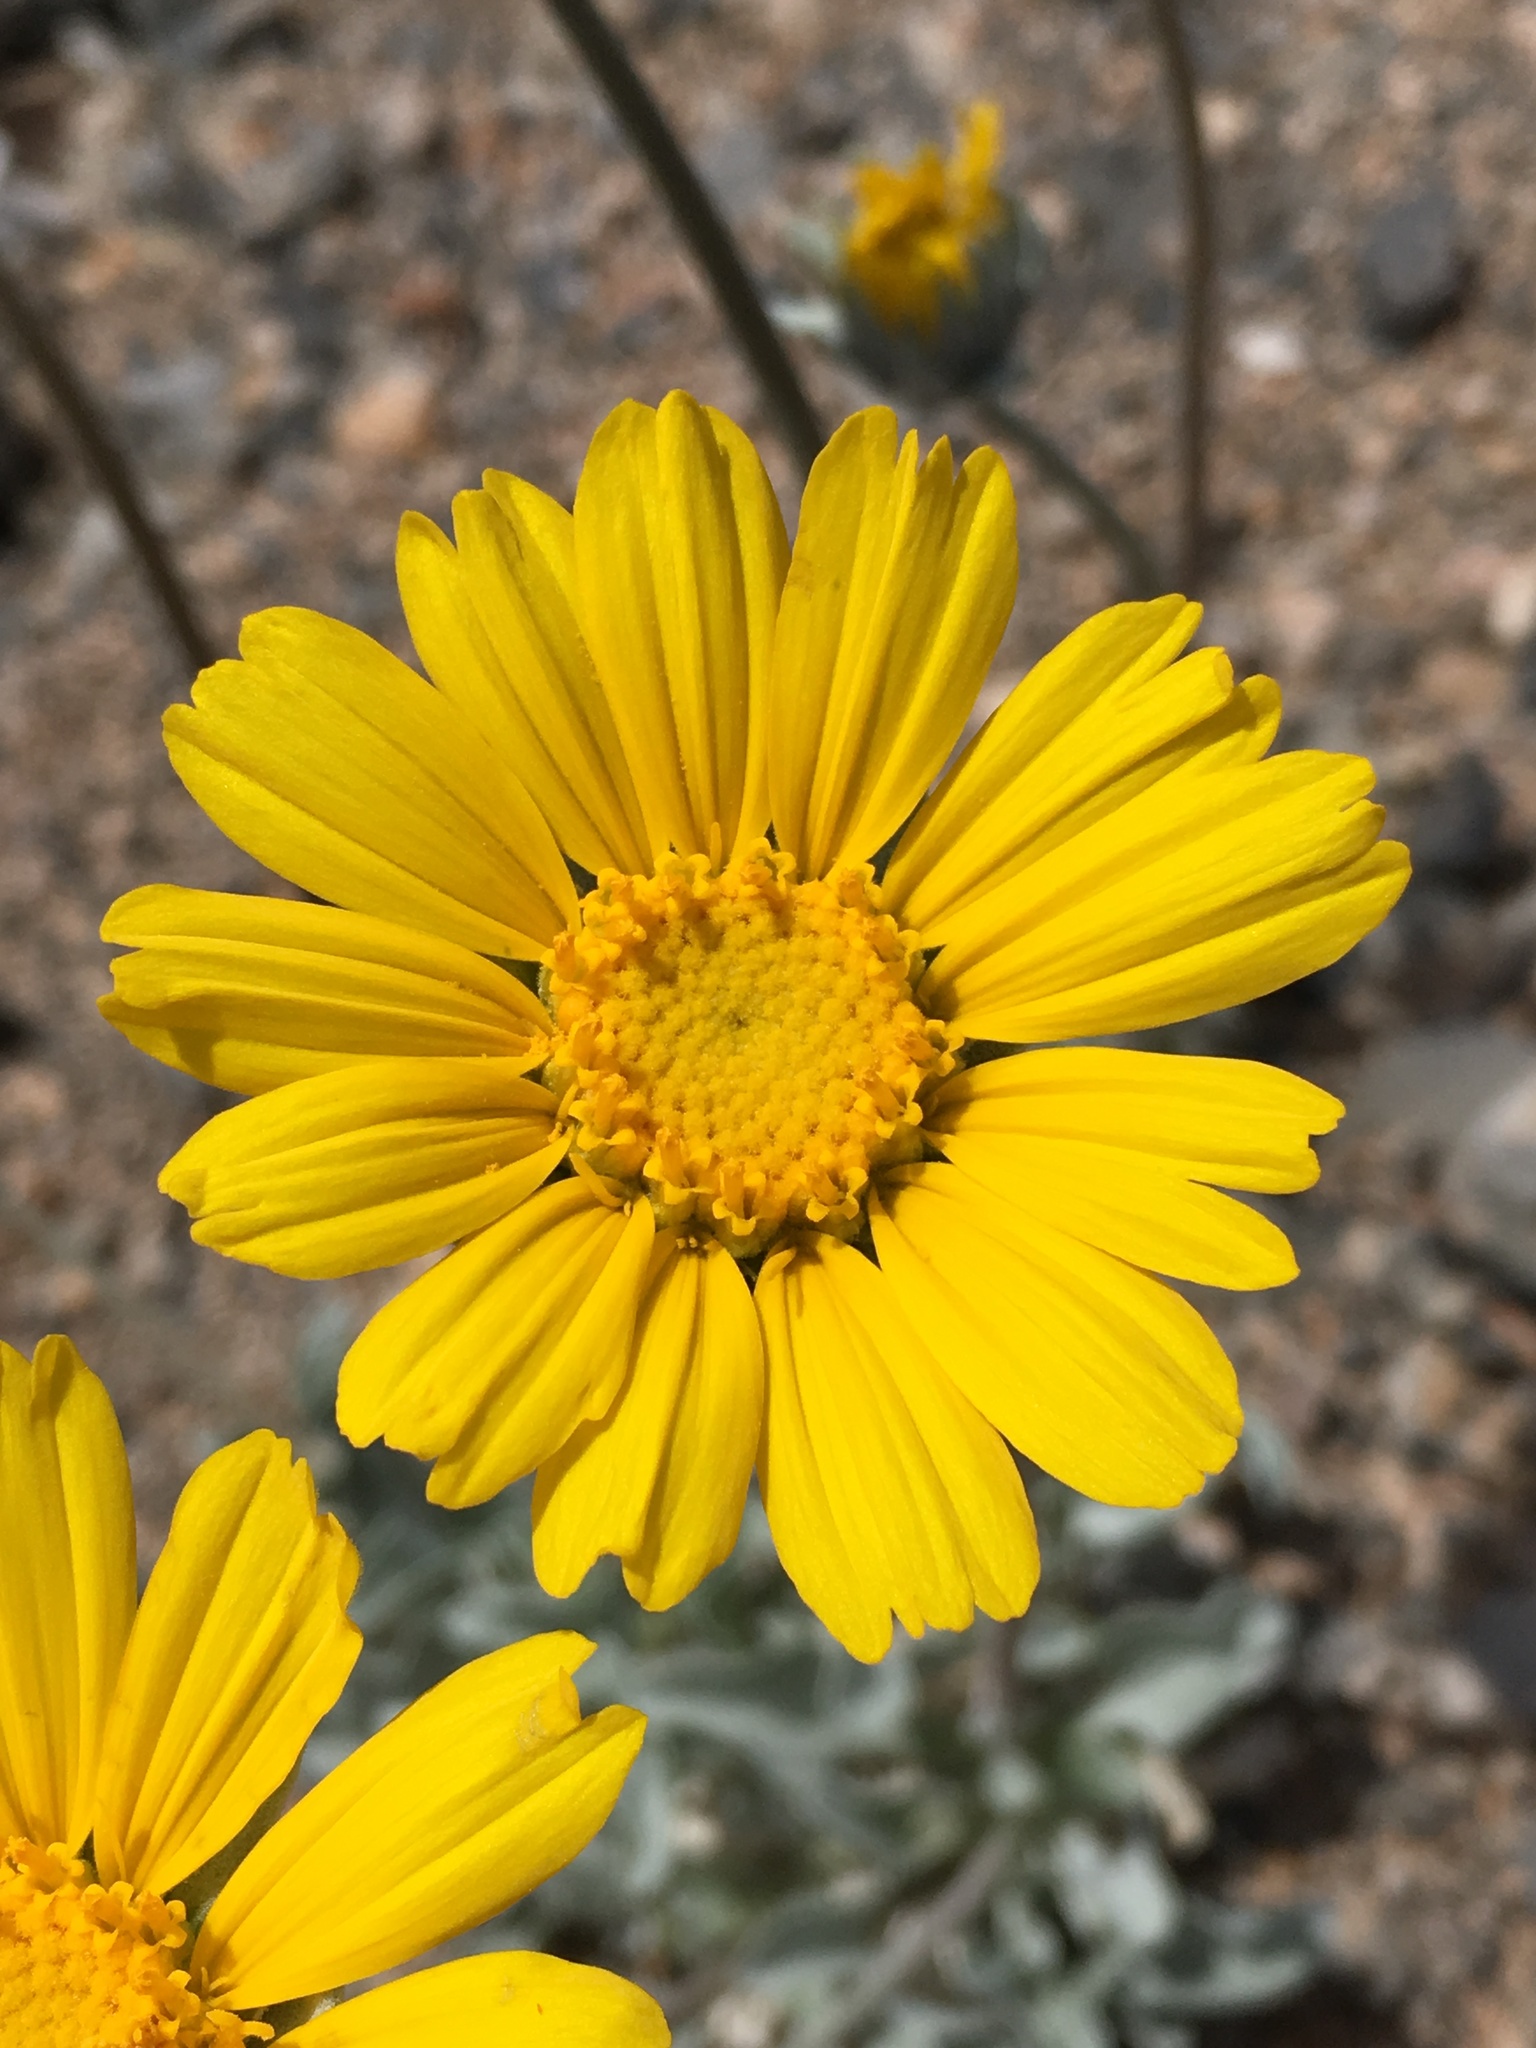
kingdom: Plantae
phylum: Tracheophyta
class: Magnoliopsida
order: Asterales
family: Asteraceae
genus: Enceliopsis
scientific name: Enceliopsis nudicaulis
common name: Naked-stem daisy
